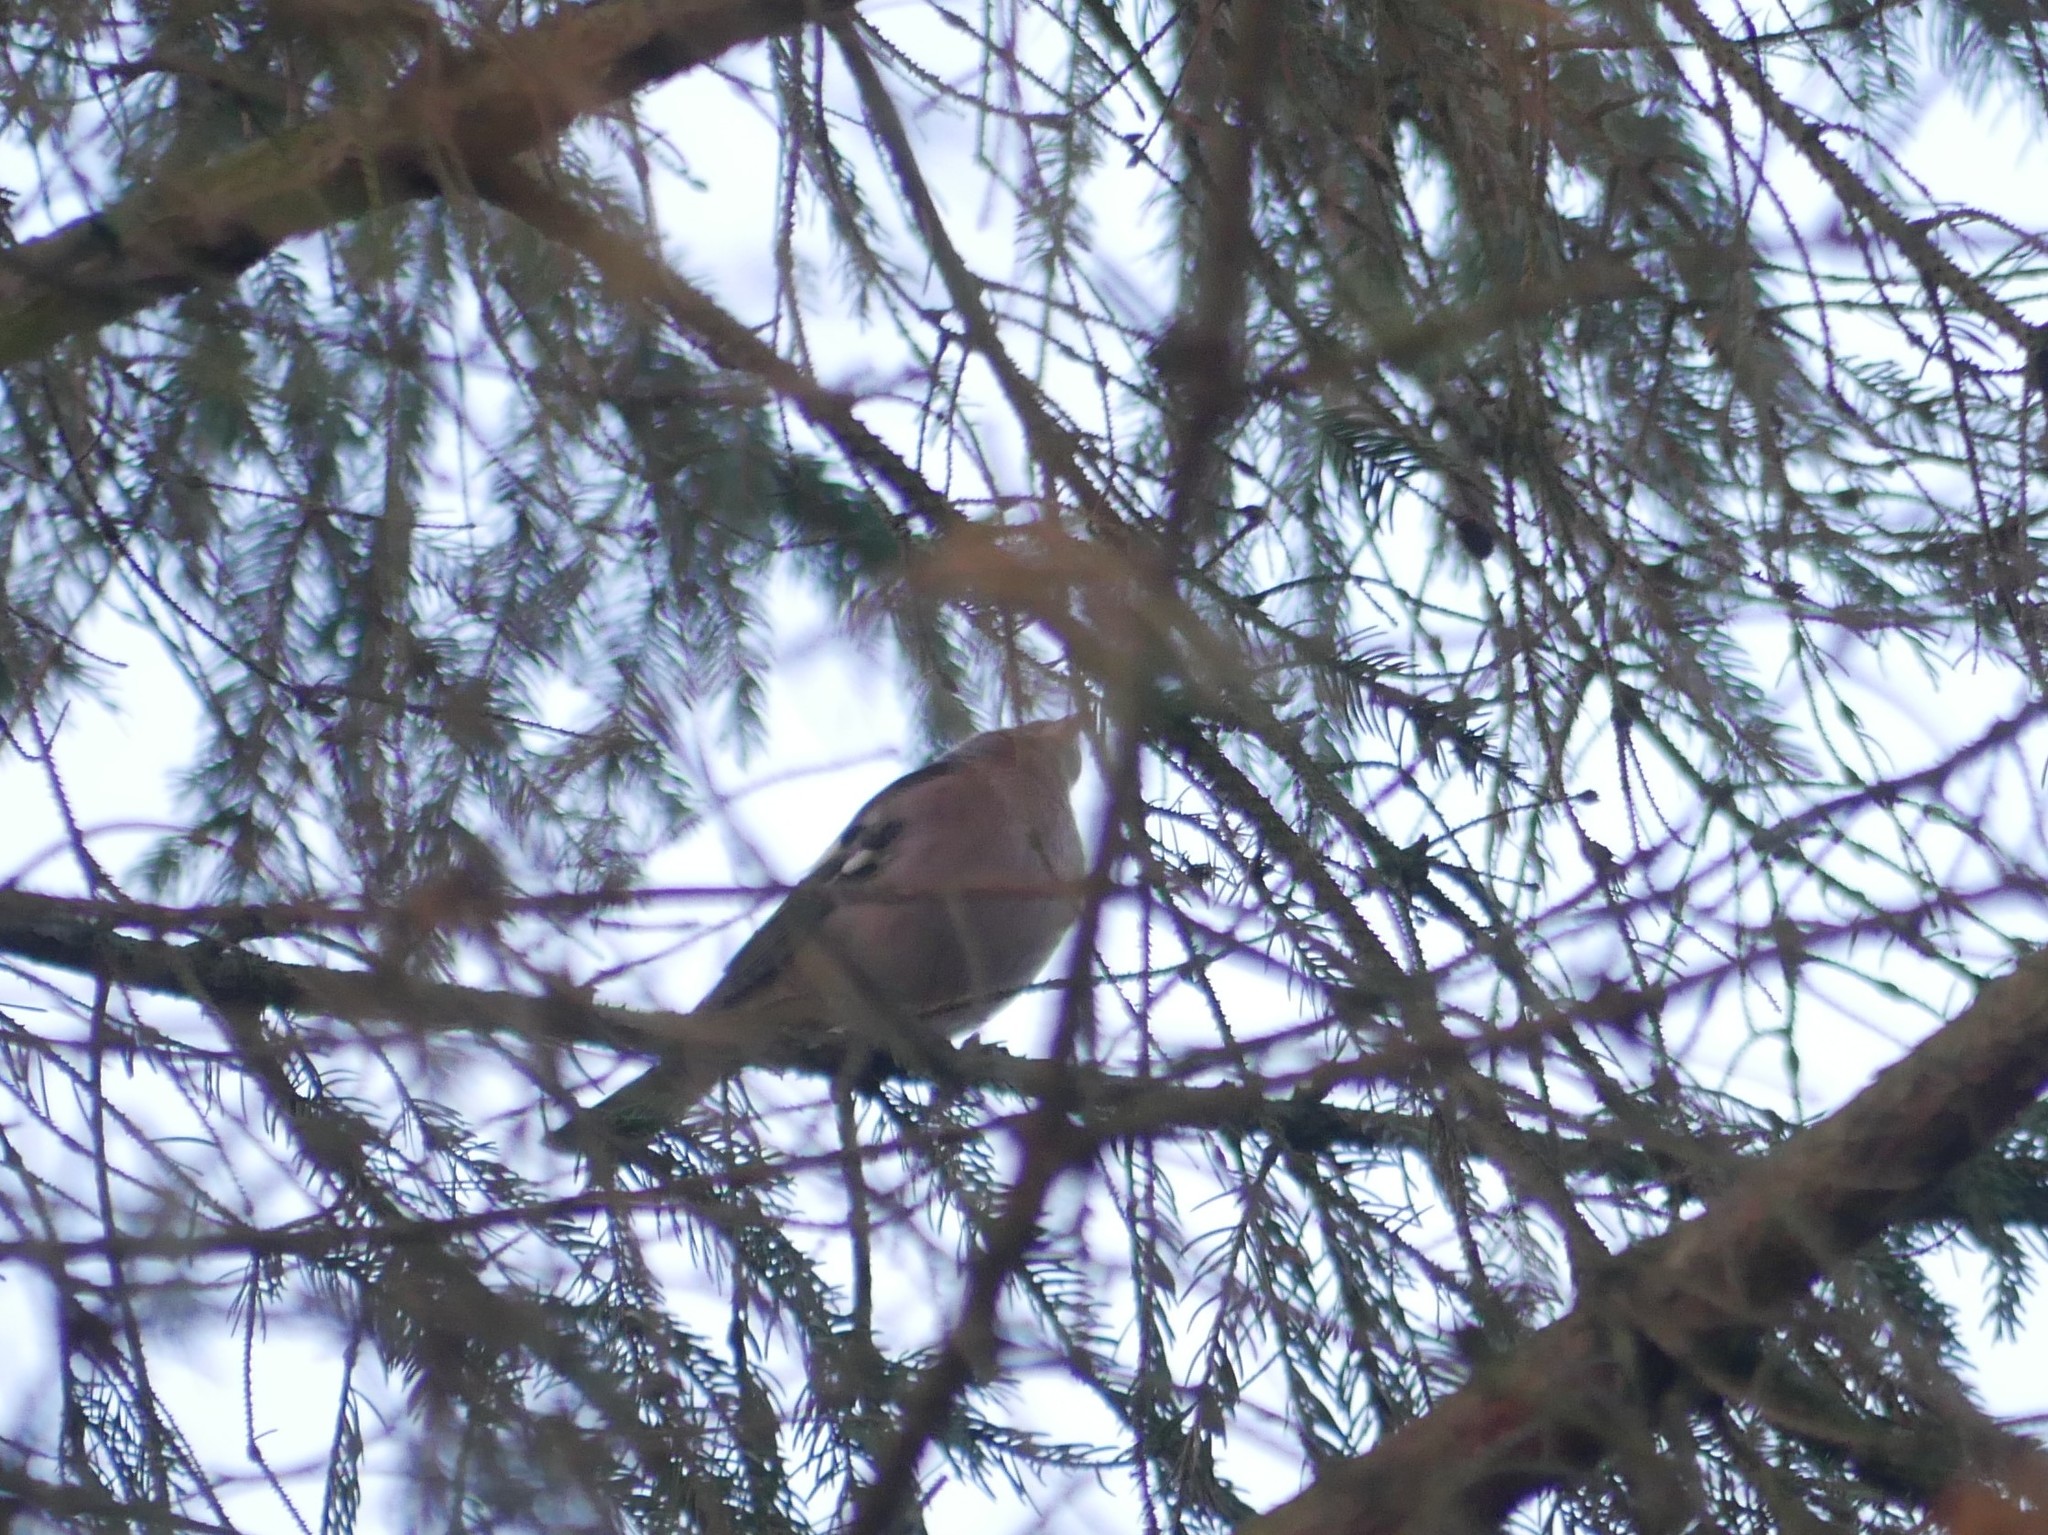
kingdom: Animalia
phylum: Chordata
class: Aves
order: Passeriformes
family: Fringillidae
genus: Fringilla
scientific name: Fringilla coelebs
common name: Common chaffinch
